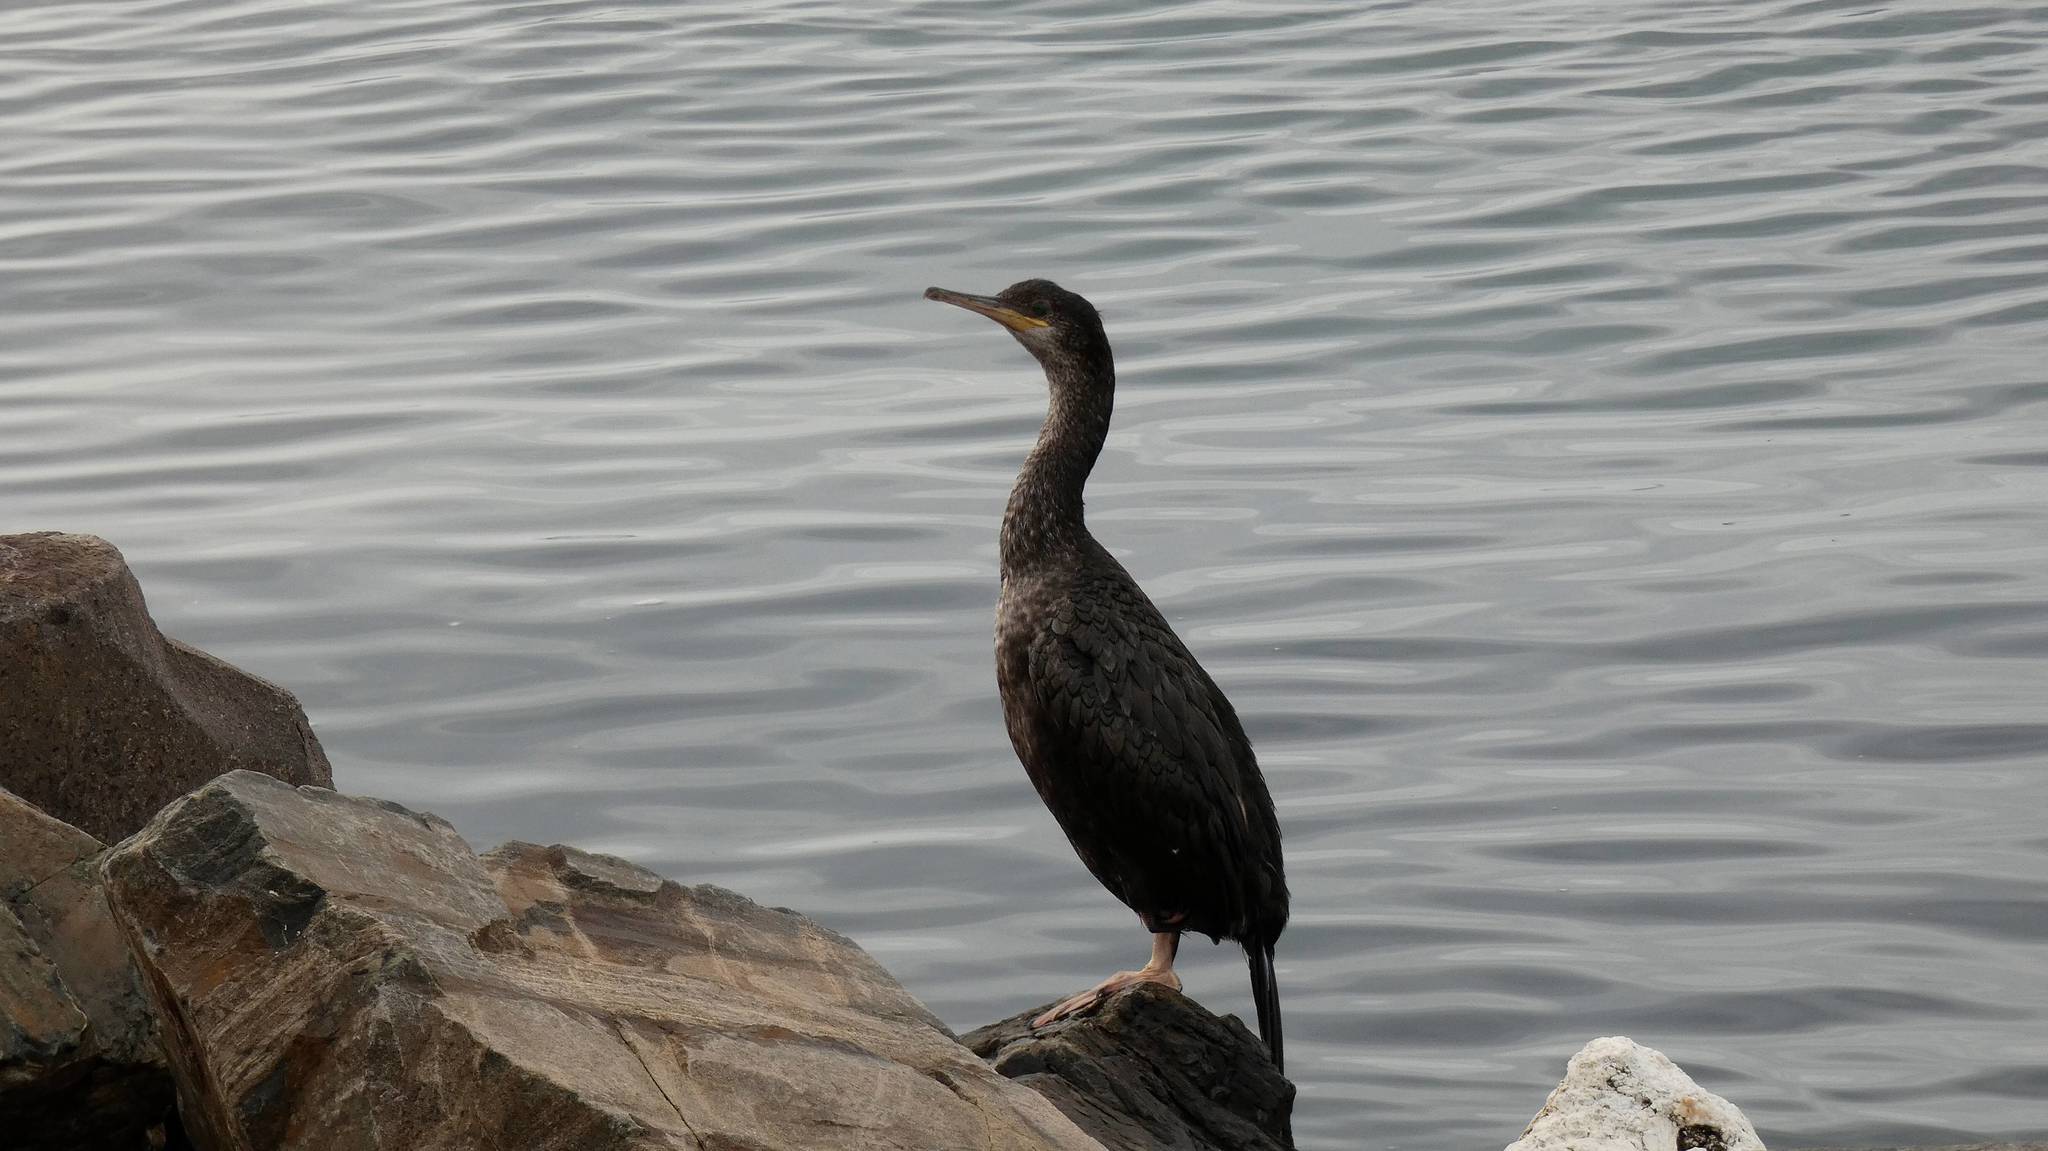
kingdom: Animalia
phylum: Chordata
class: Aves
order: Suliformes
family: Phalacrocoracidae
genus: Phalacrocorax
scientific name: Phalacrocorax aristotelis
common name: European shag
